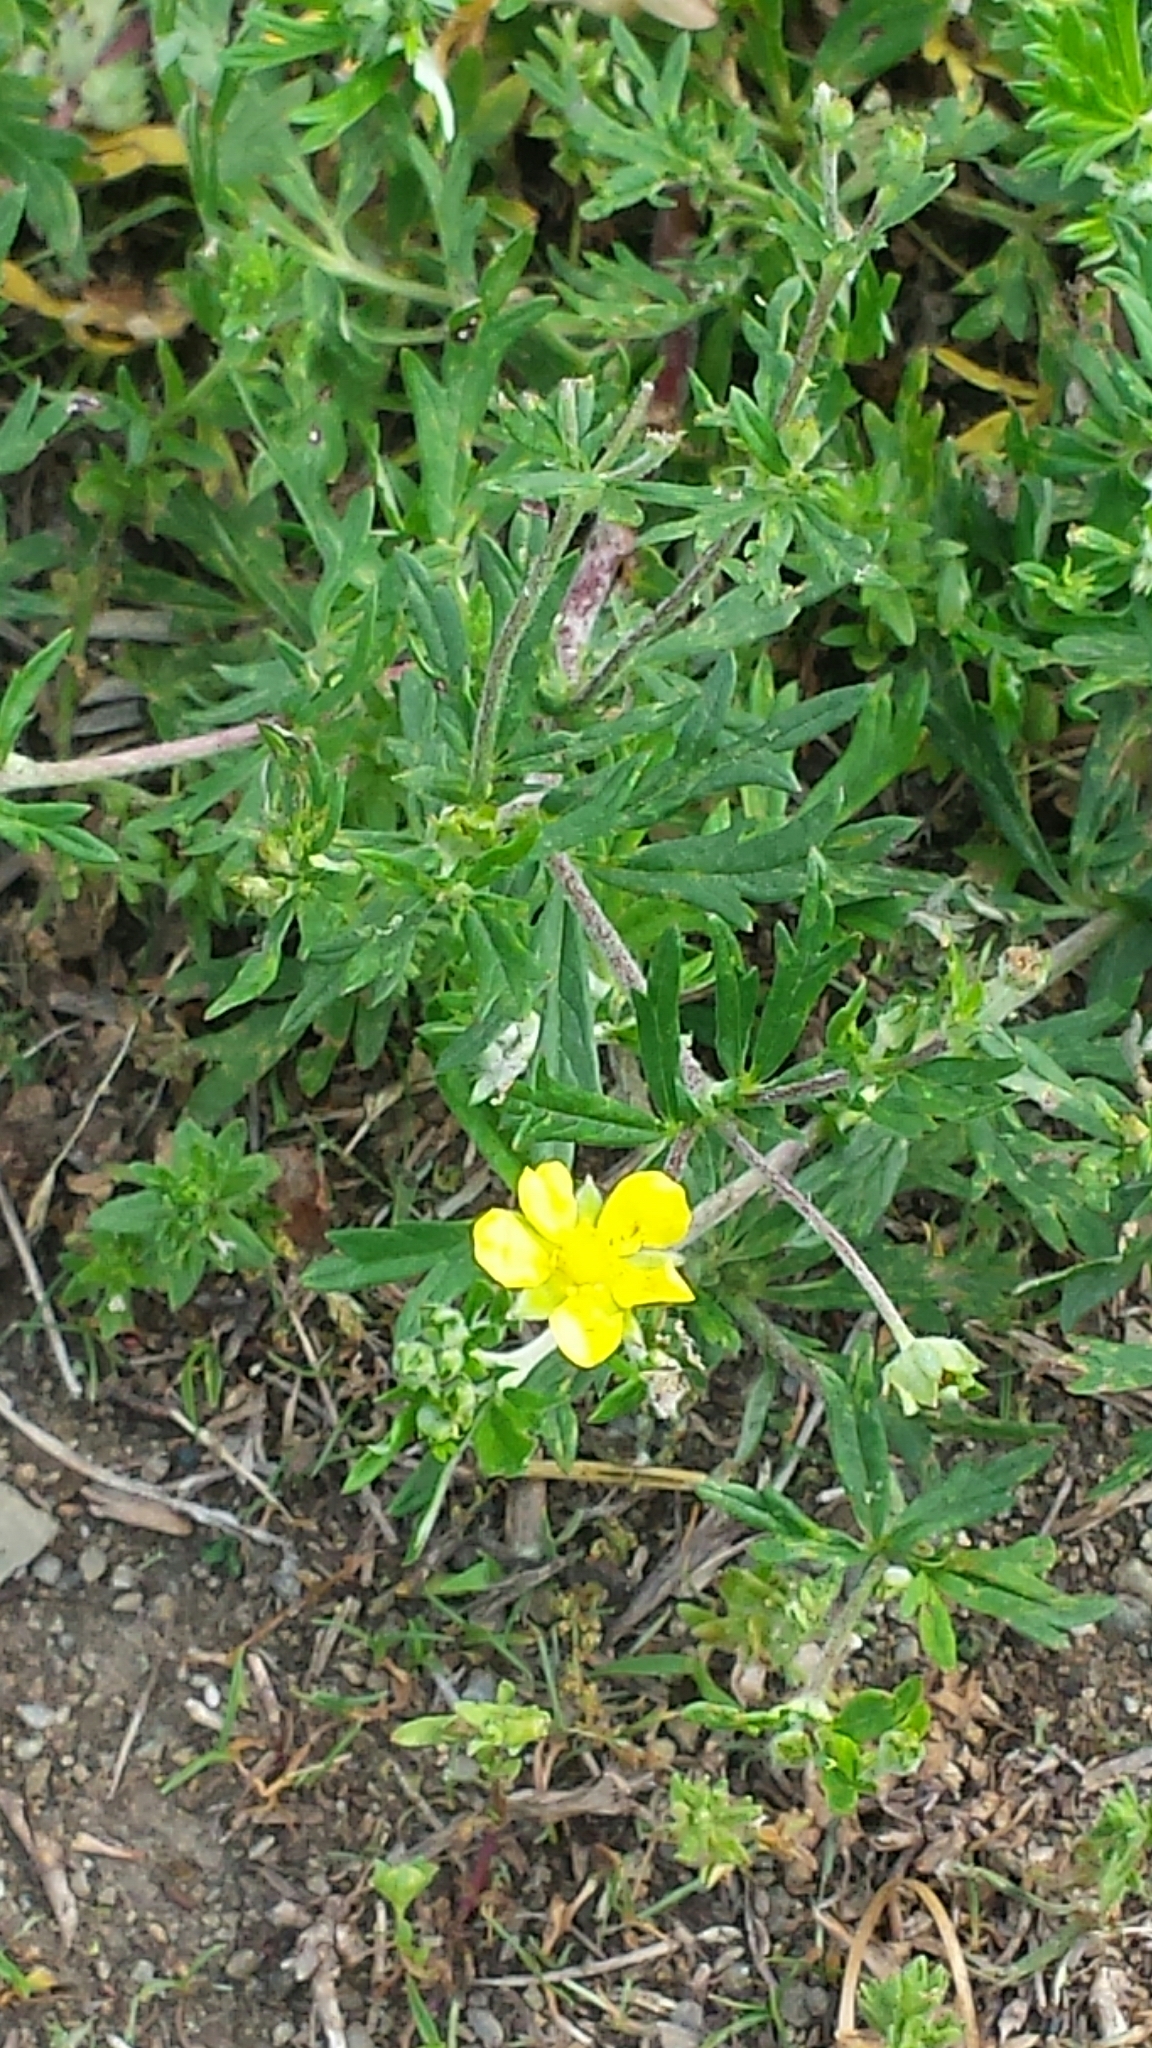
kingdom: Plantae
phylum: Tracheophyta
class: Magnoliopsida
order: Rosales
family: Rosaceae
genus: Potentilla
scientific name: Potentilla argentea
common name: Hoary cinquefoil
